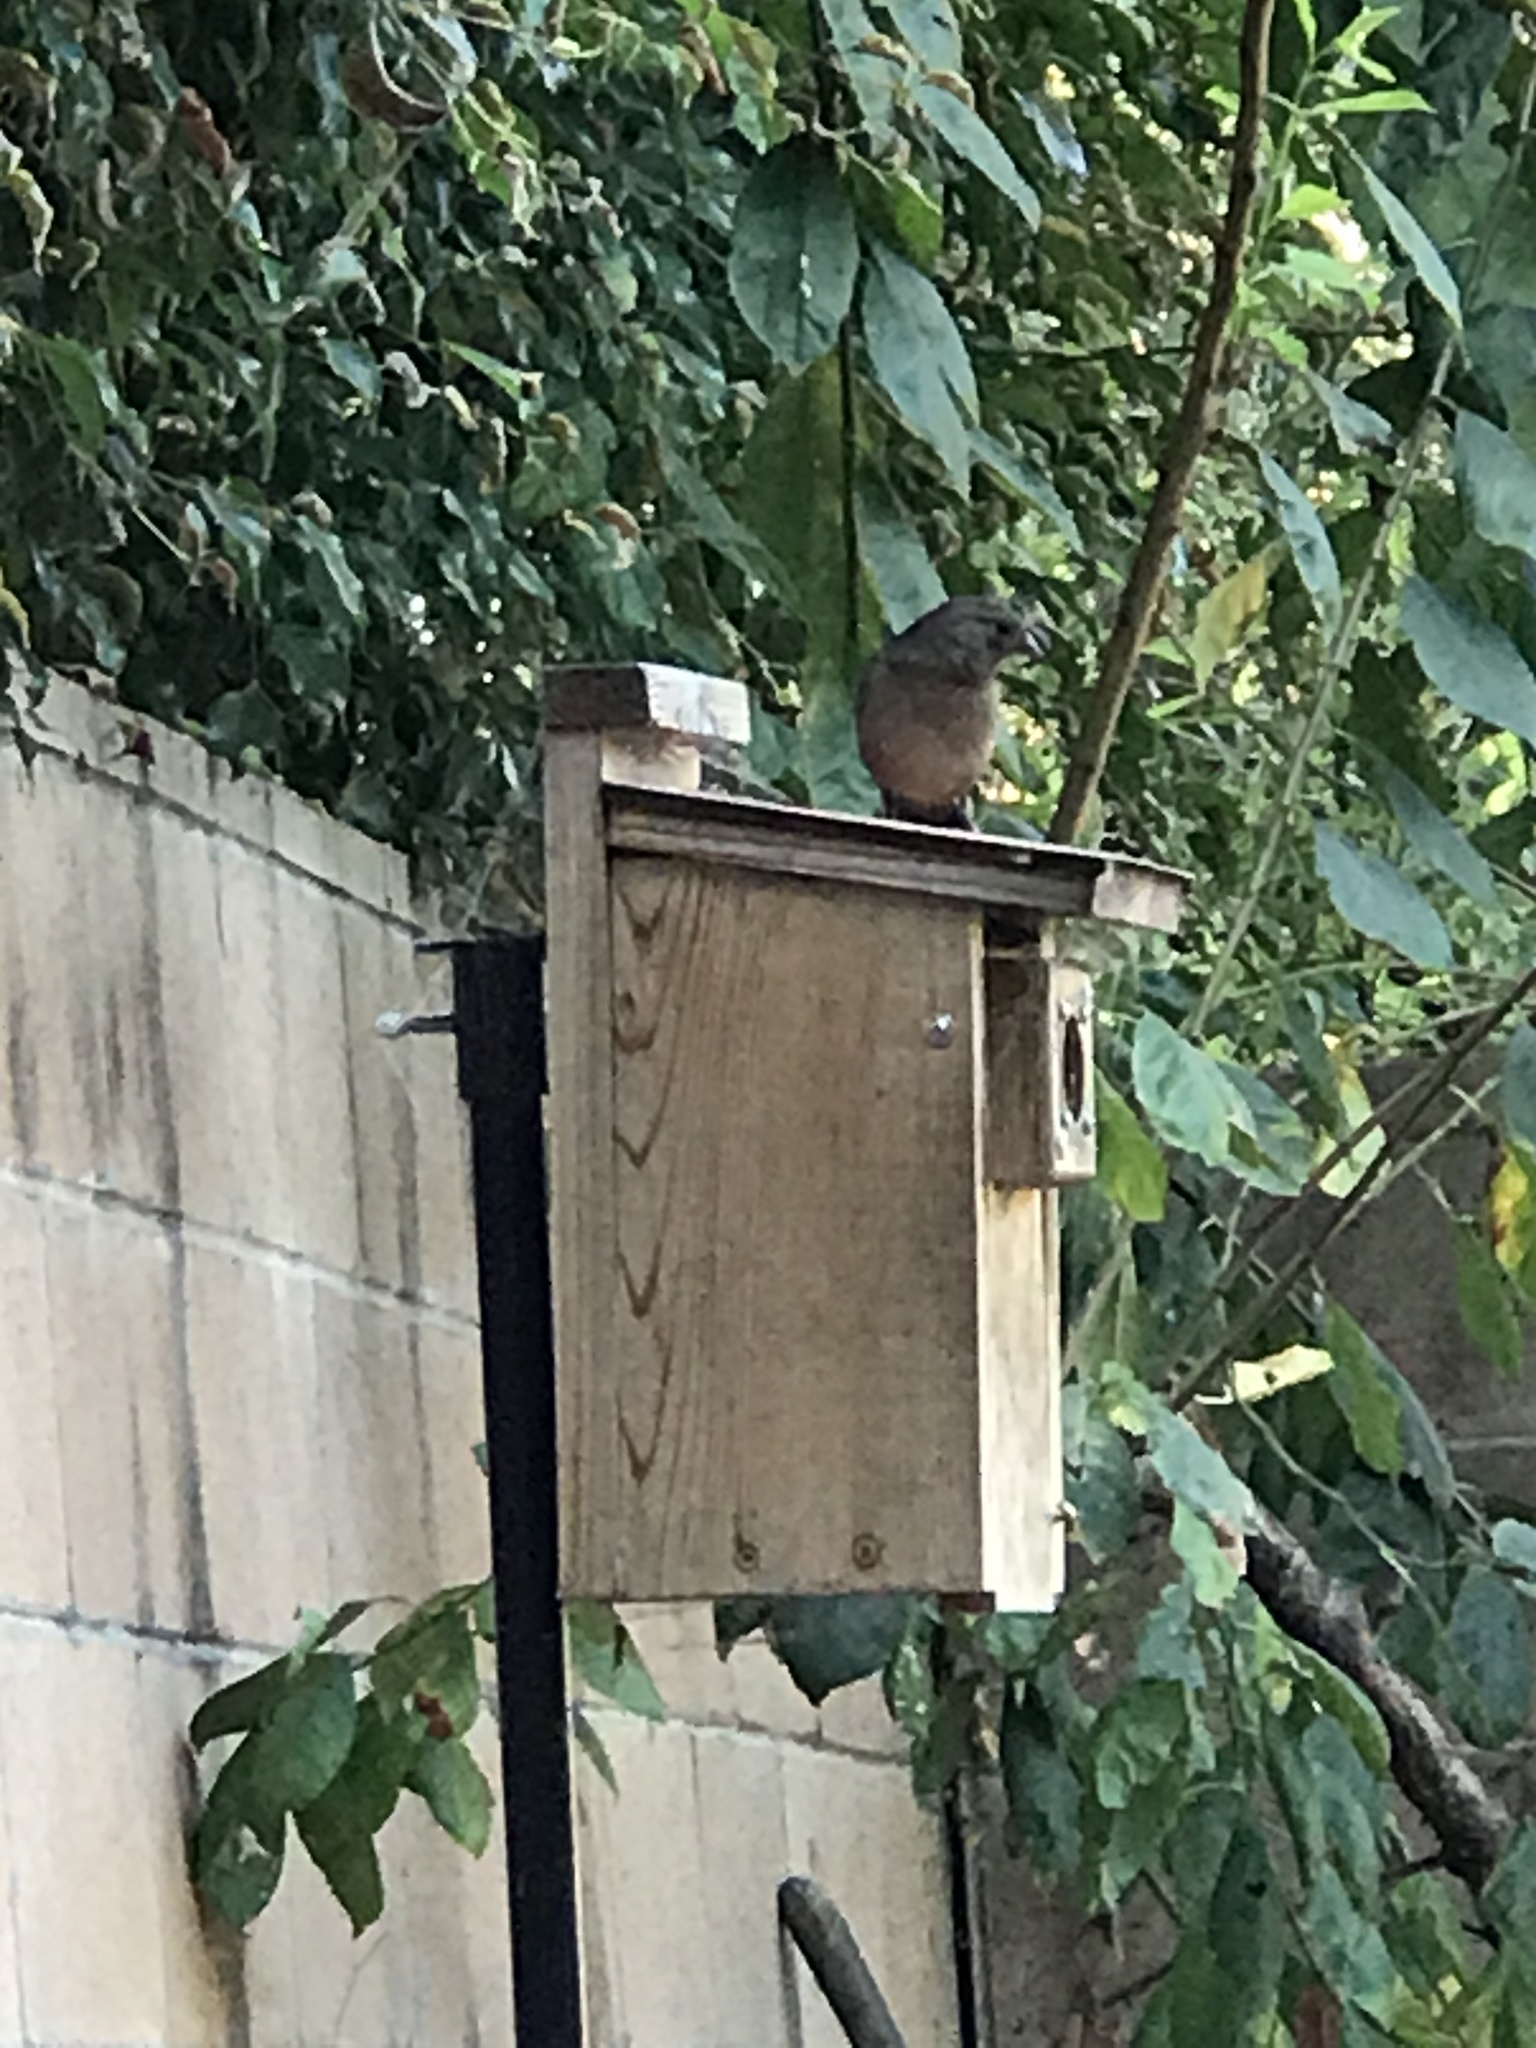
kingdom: Animalia
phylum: Chordata
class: Aves
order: Passeriformes
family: Passerellidae
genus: Melozone
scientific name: Melozone crissalis
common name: California towhee
